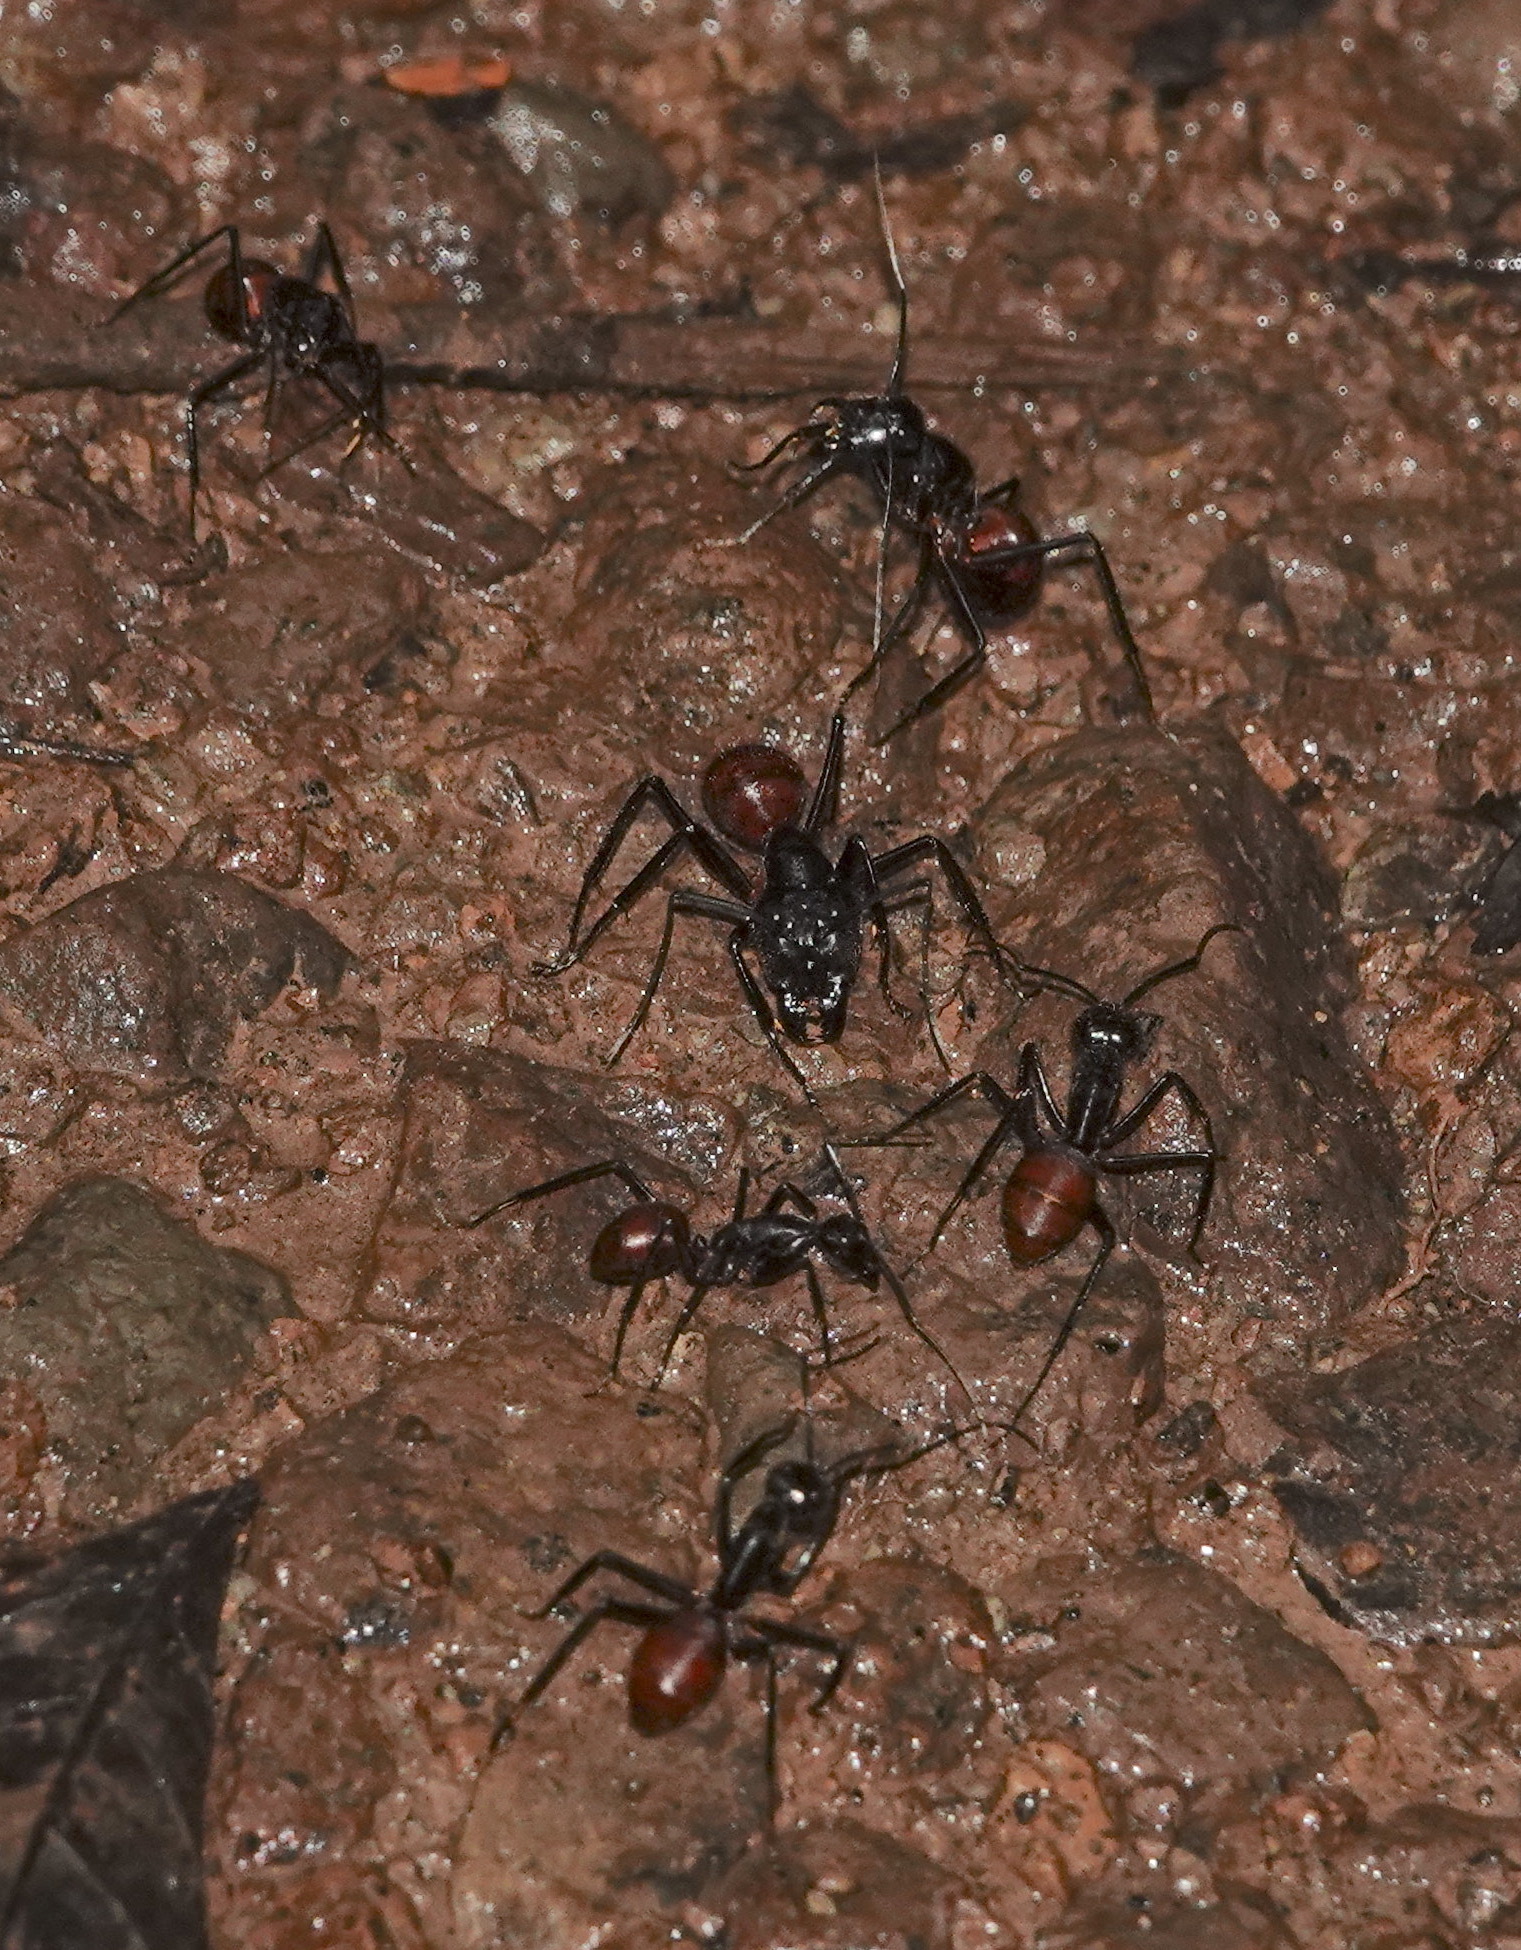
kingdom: Animalia
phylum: Arthropoda
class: Insecta
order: Hymenoptera
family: Formicidae
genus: Dinomyrmex
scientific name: Dinomyrmex
